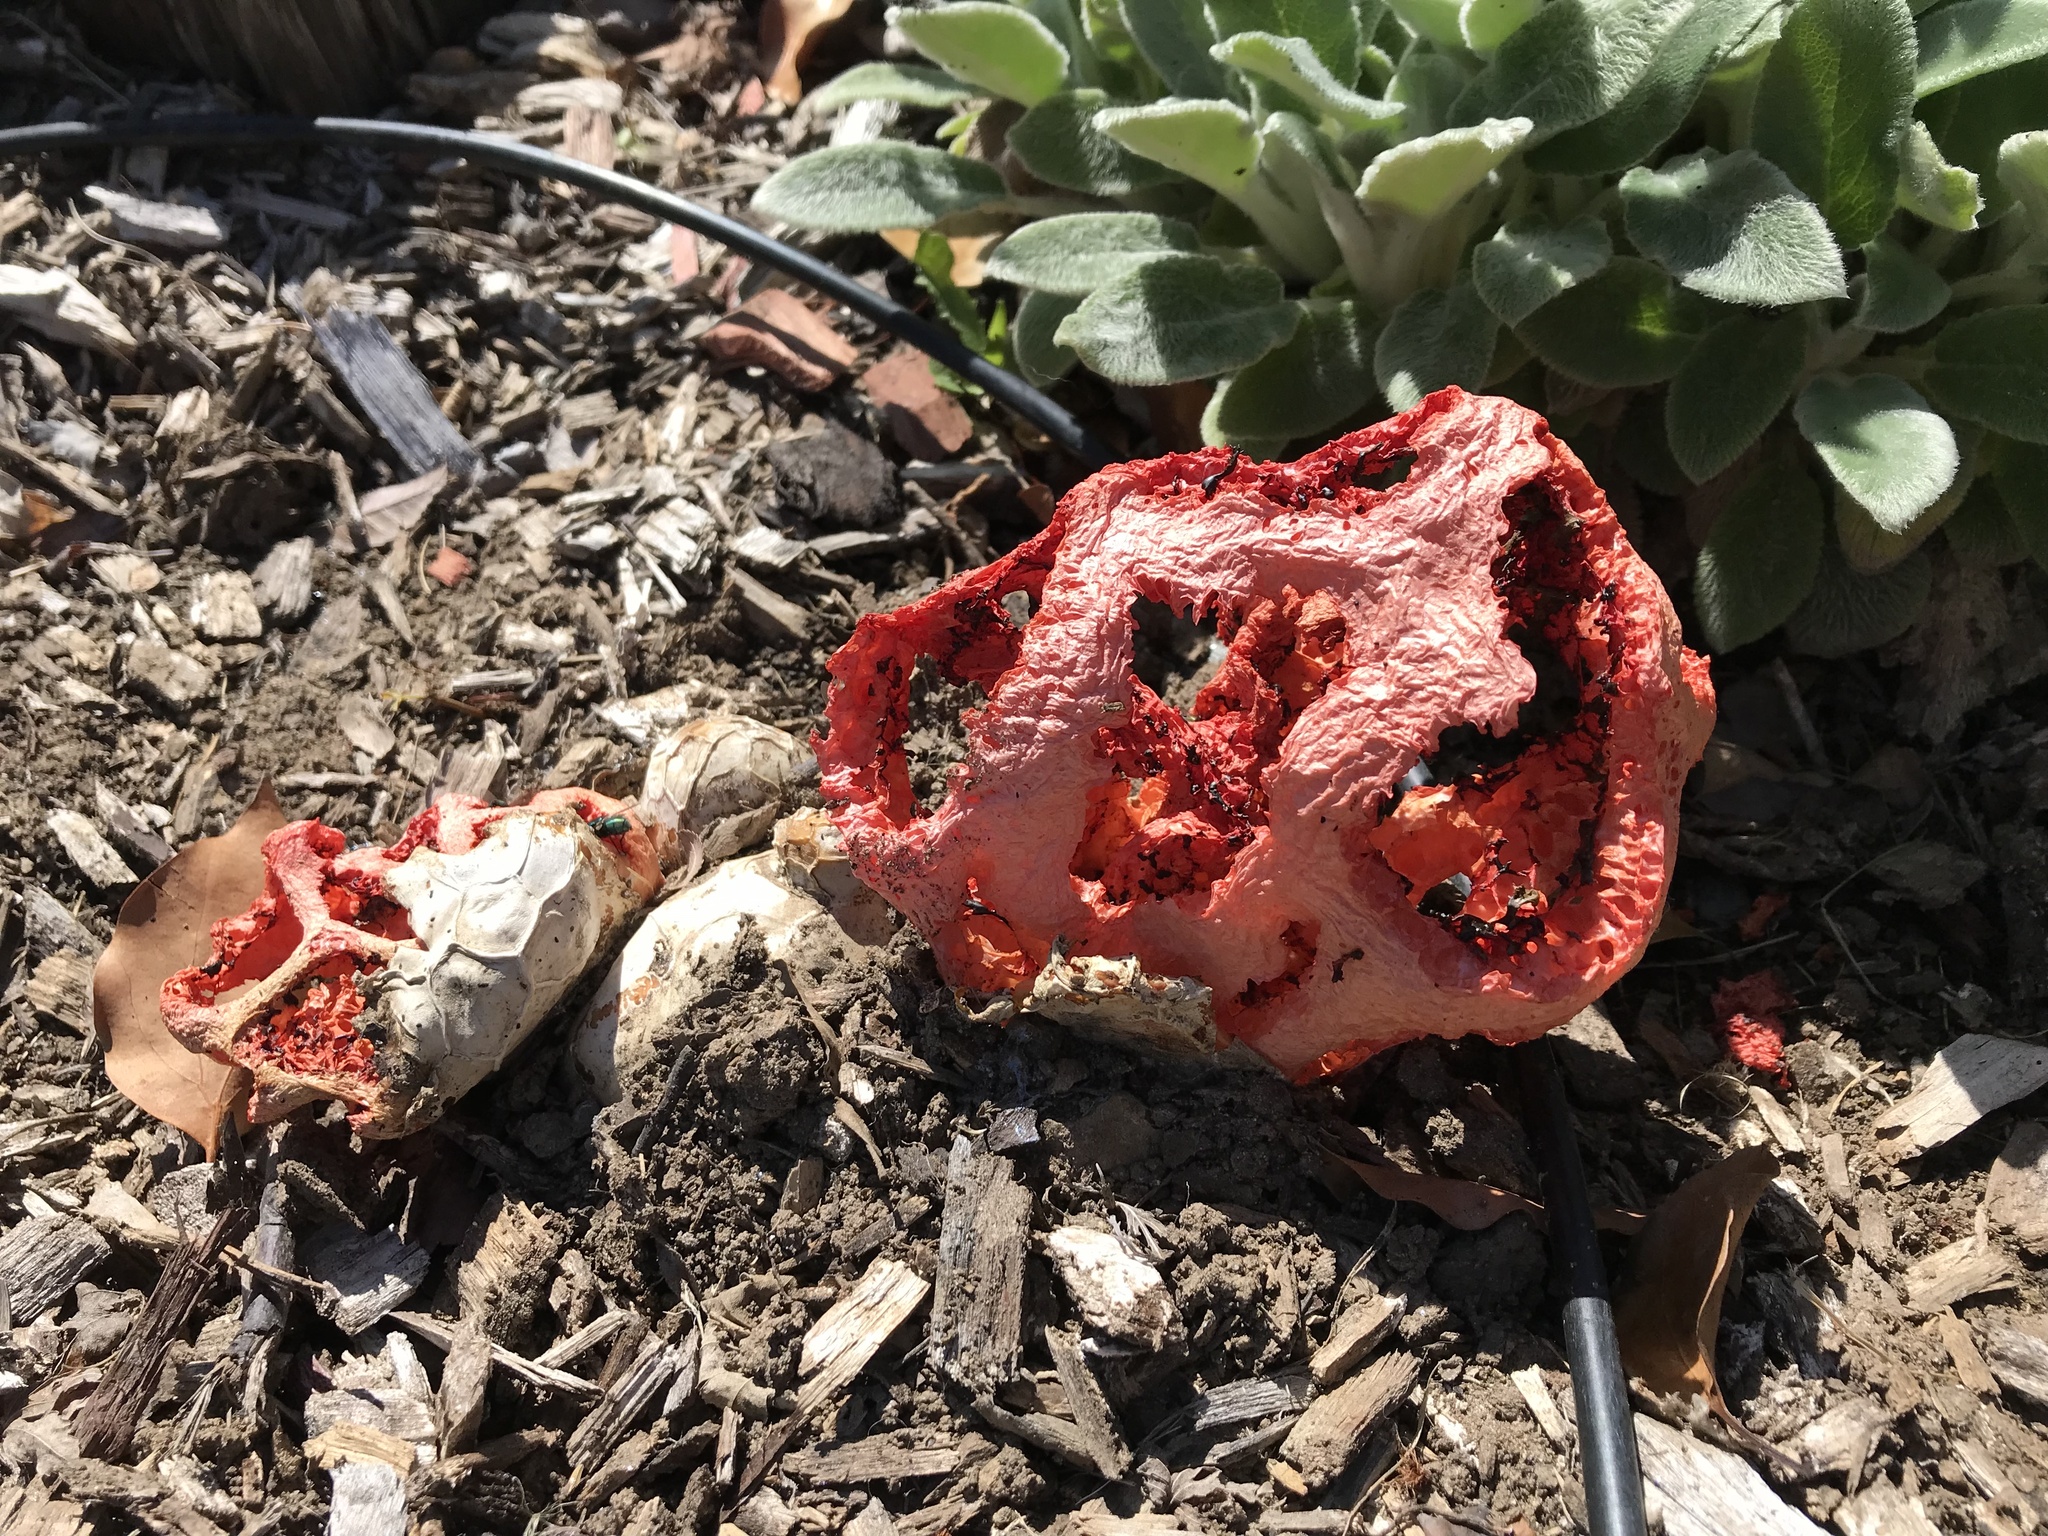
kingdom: Fungi
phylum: Basidiomycota
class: Agaricomycetes
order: Phallales
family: Phallaceae
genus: Clathrus
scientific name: Clathrus ruber
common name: Red cage
